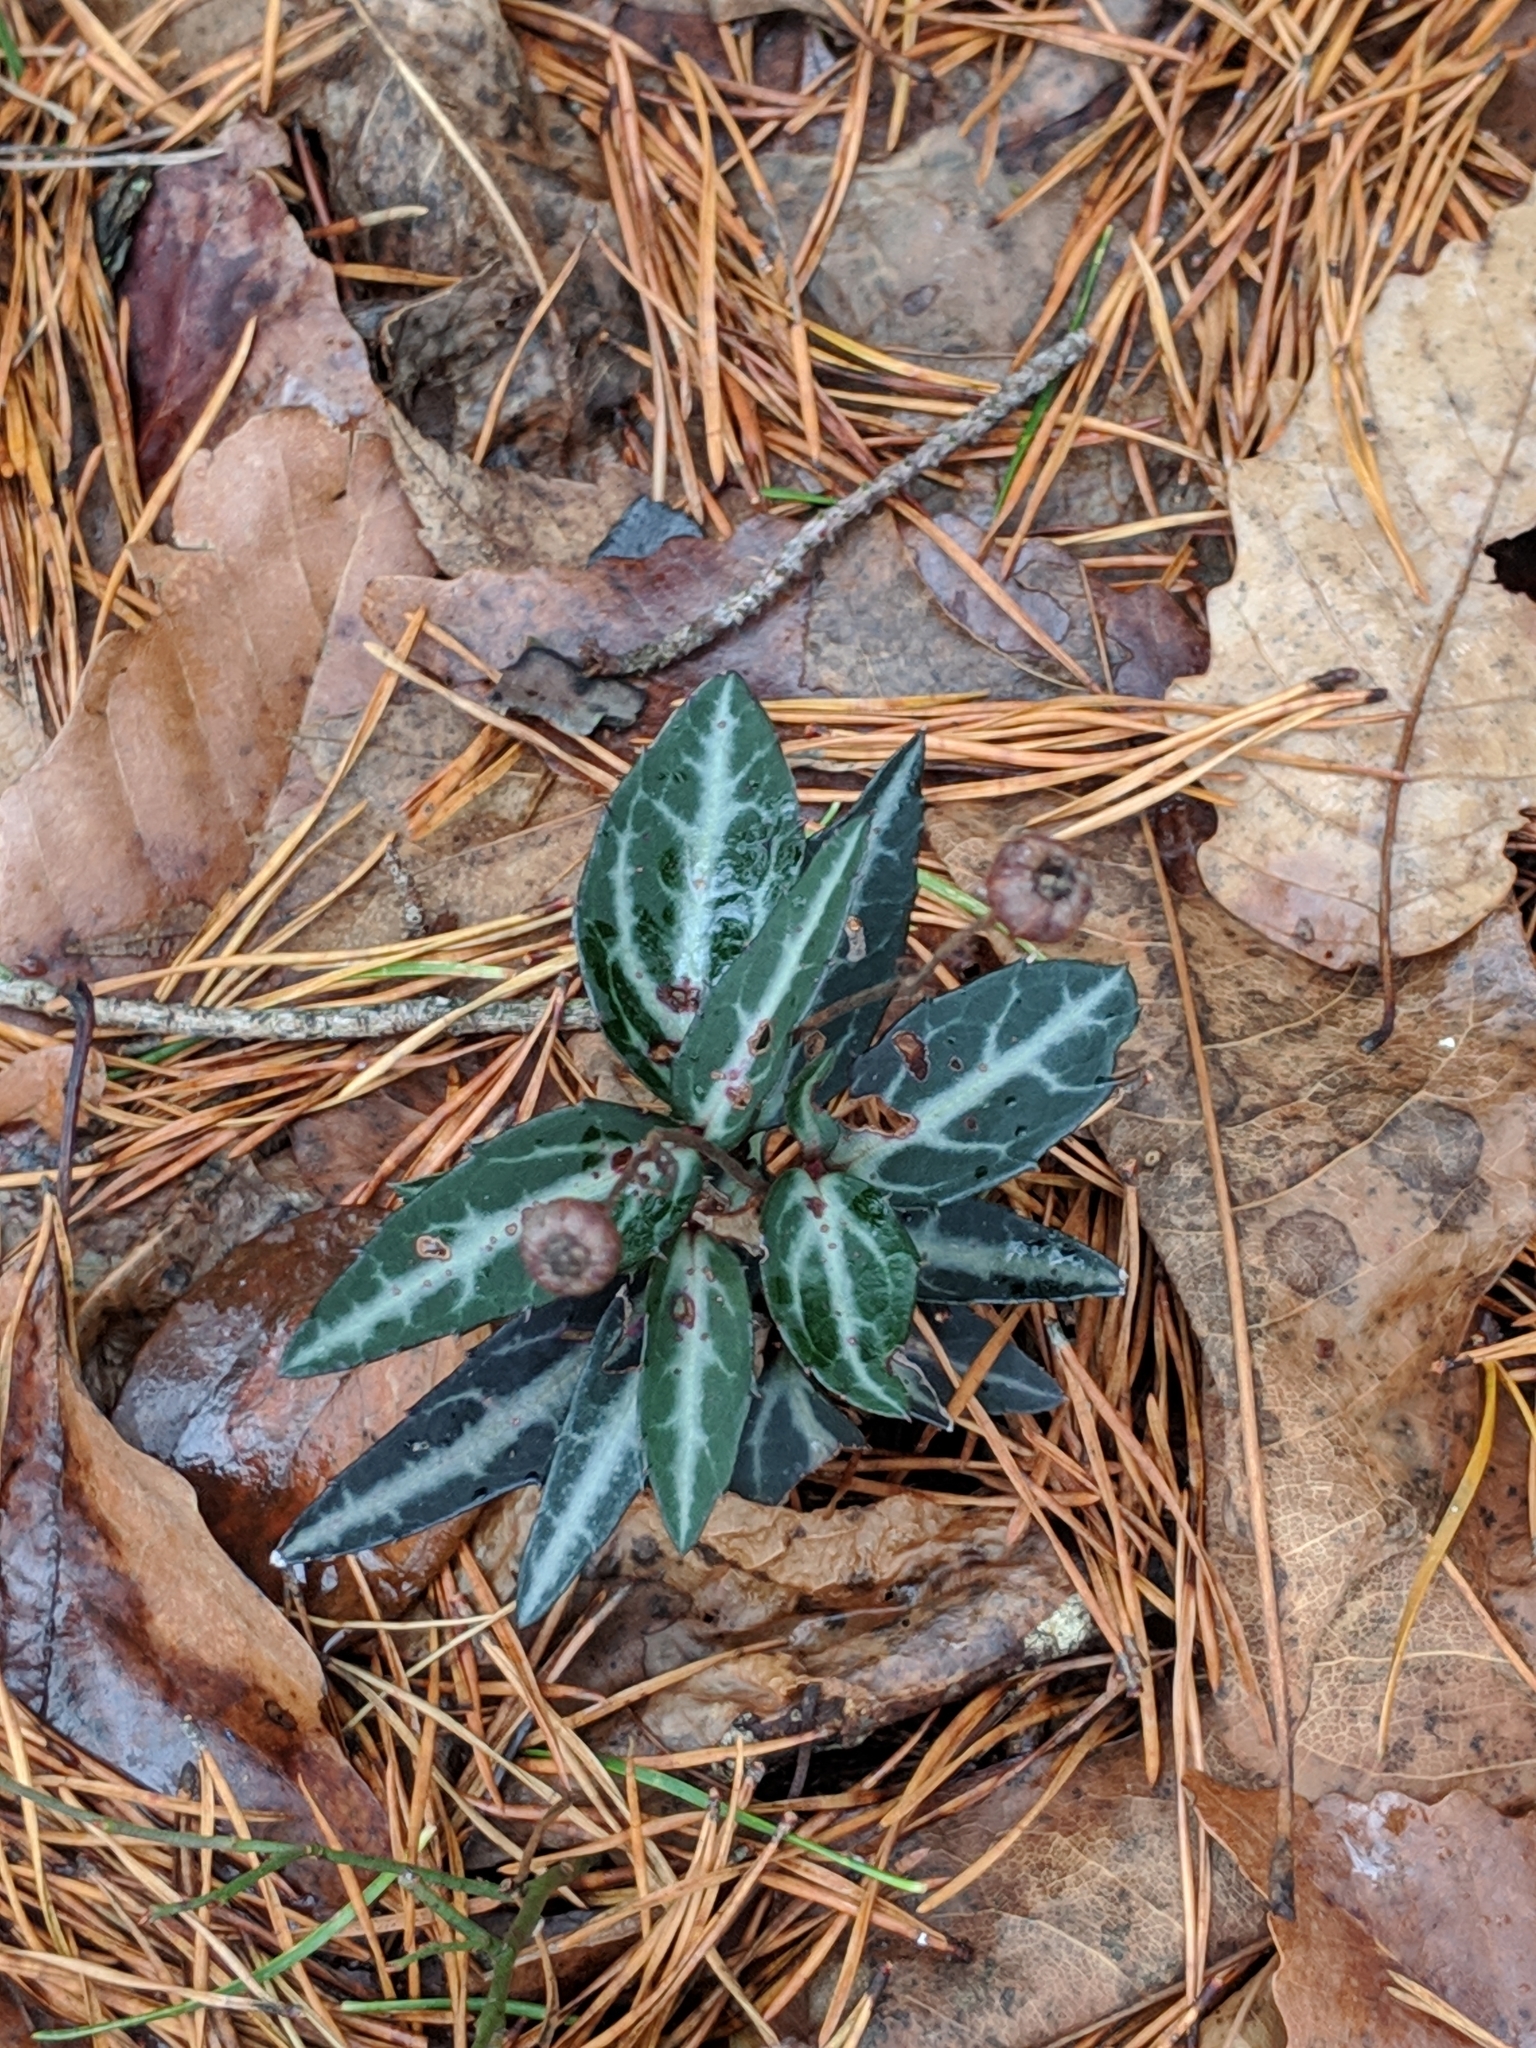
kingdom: Plantae
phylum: Tracheophyta
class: Magnoliopsida
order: Ericales
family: Ericaceae
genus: Chimaphila
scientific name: Chimaphila maculata
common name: Spotted pipsissewa
